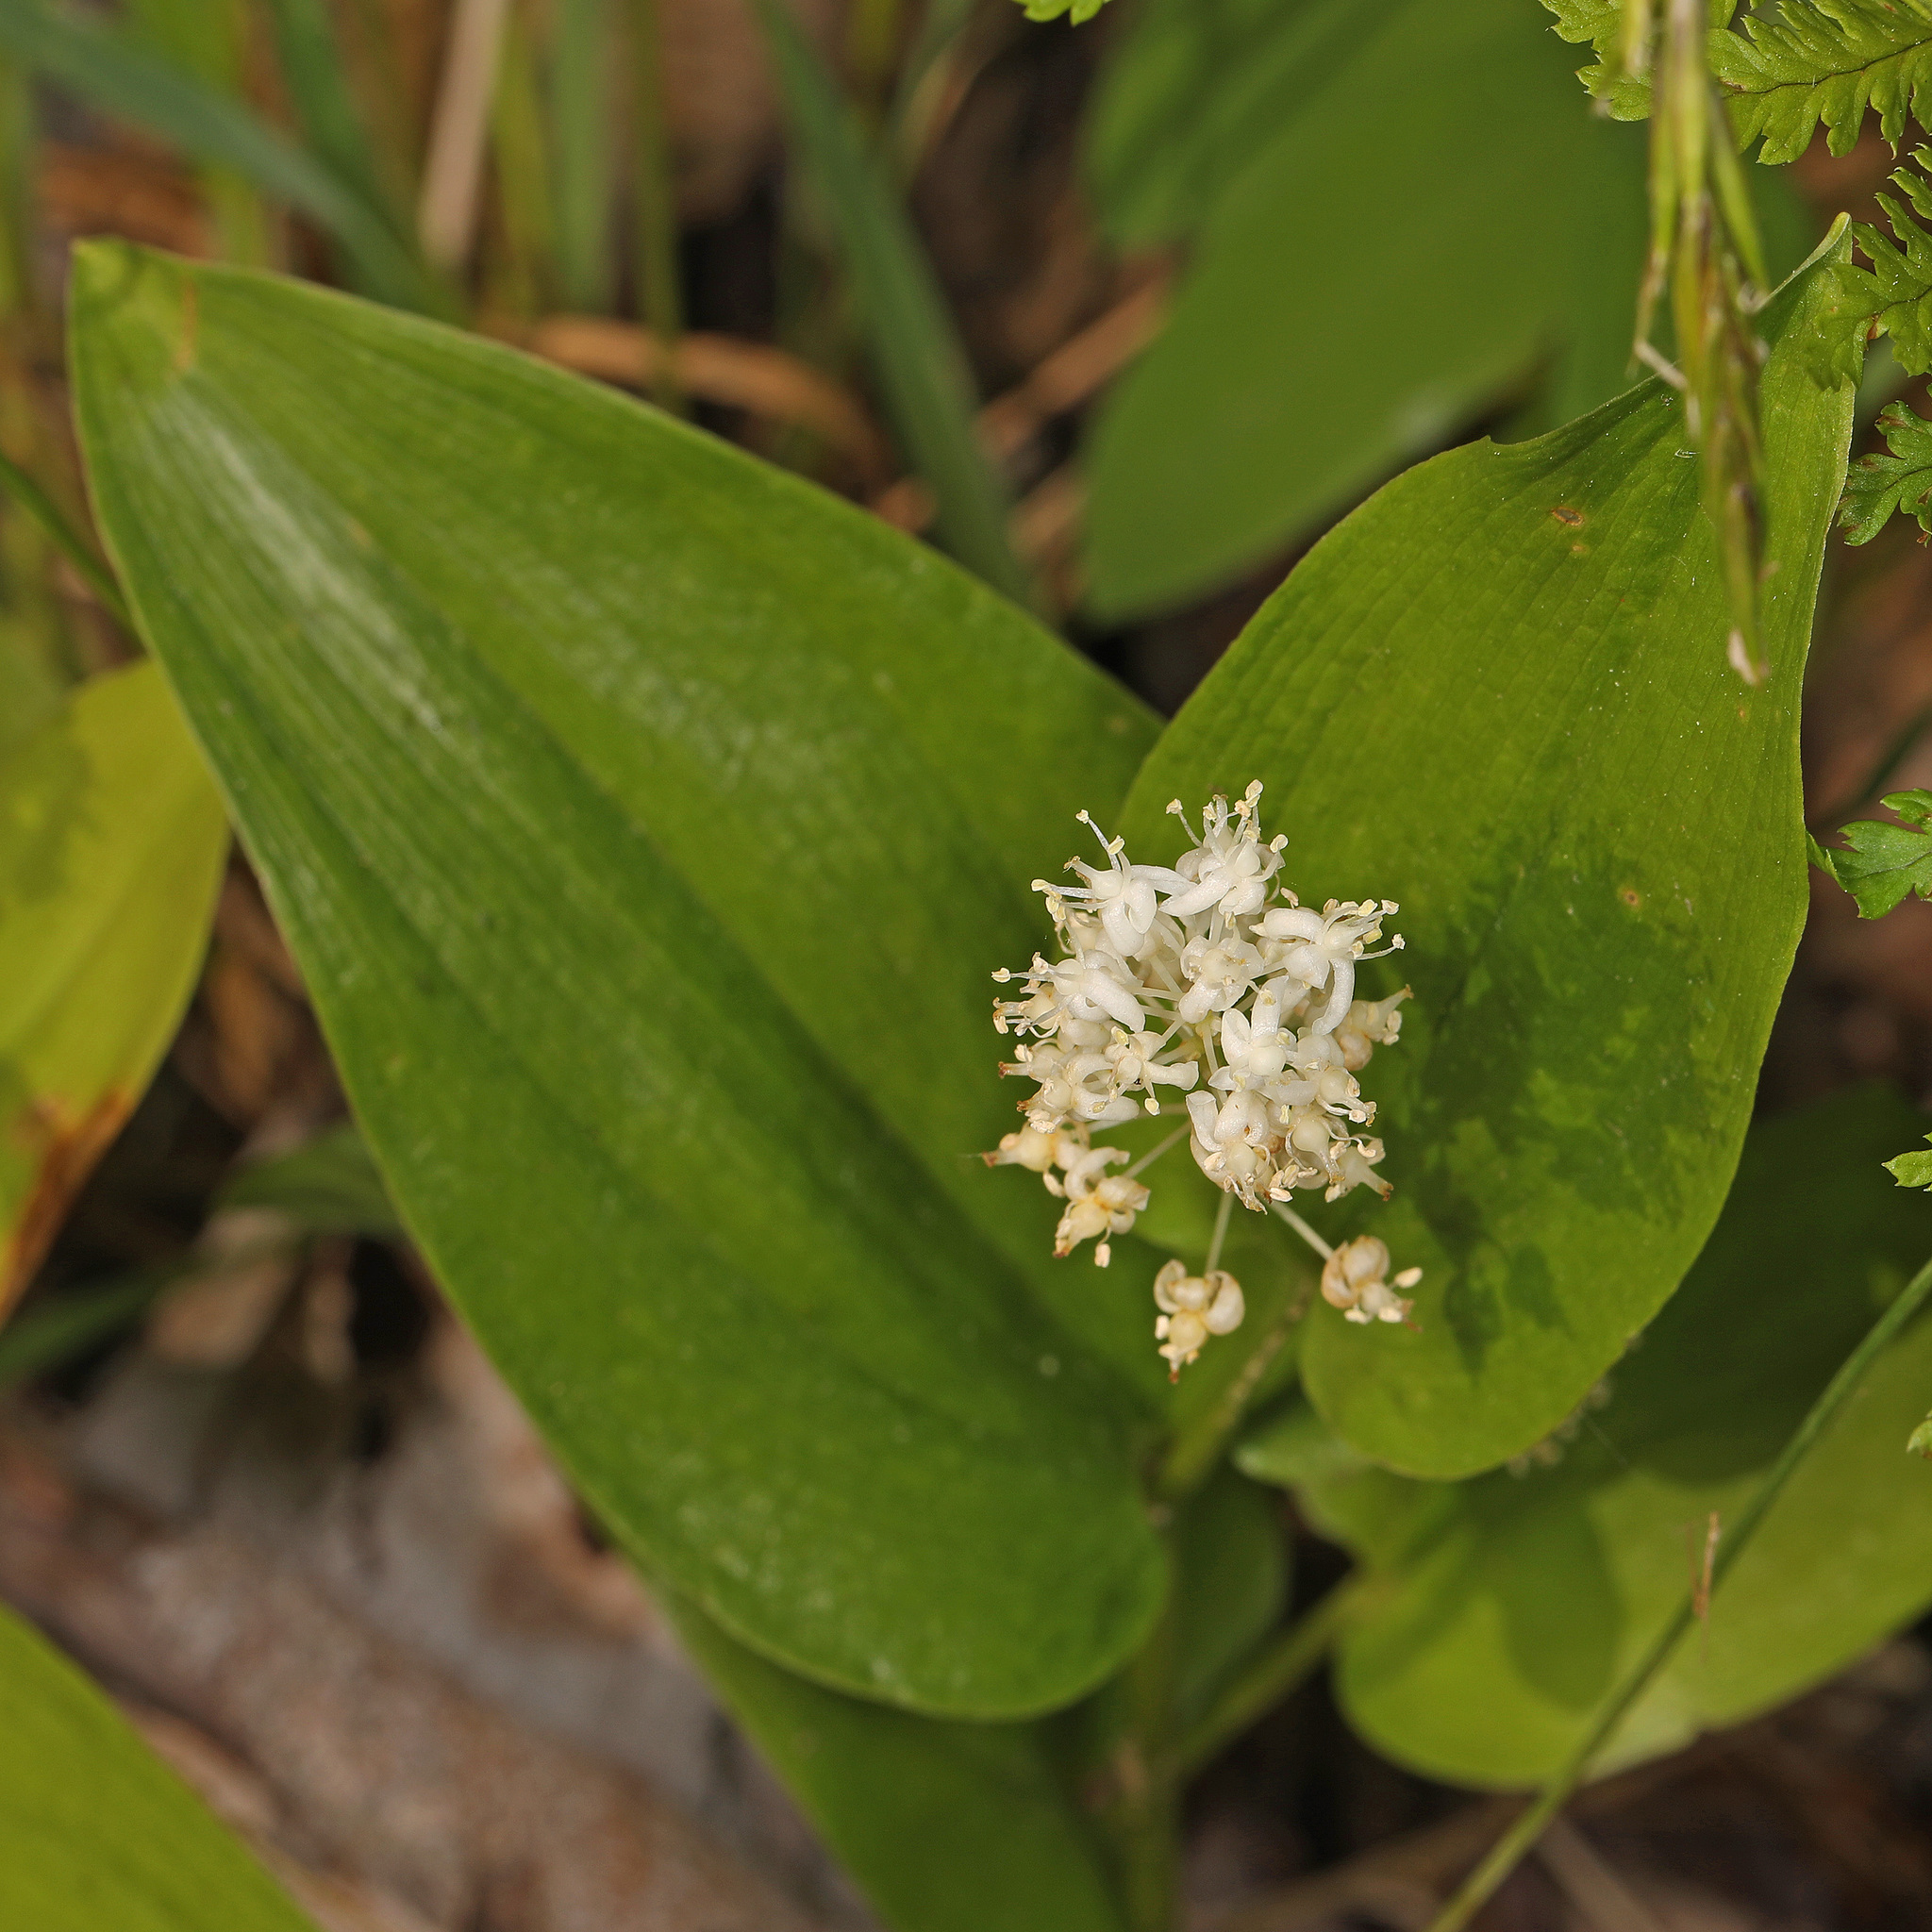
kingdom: Plantae
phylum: Tracheophyta
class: Liliopsida
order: Asparagales
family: Asparagaceae
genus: Maianthemum
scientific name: Maianthemum canadense
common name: False lily-of-the-valley
